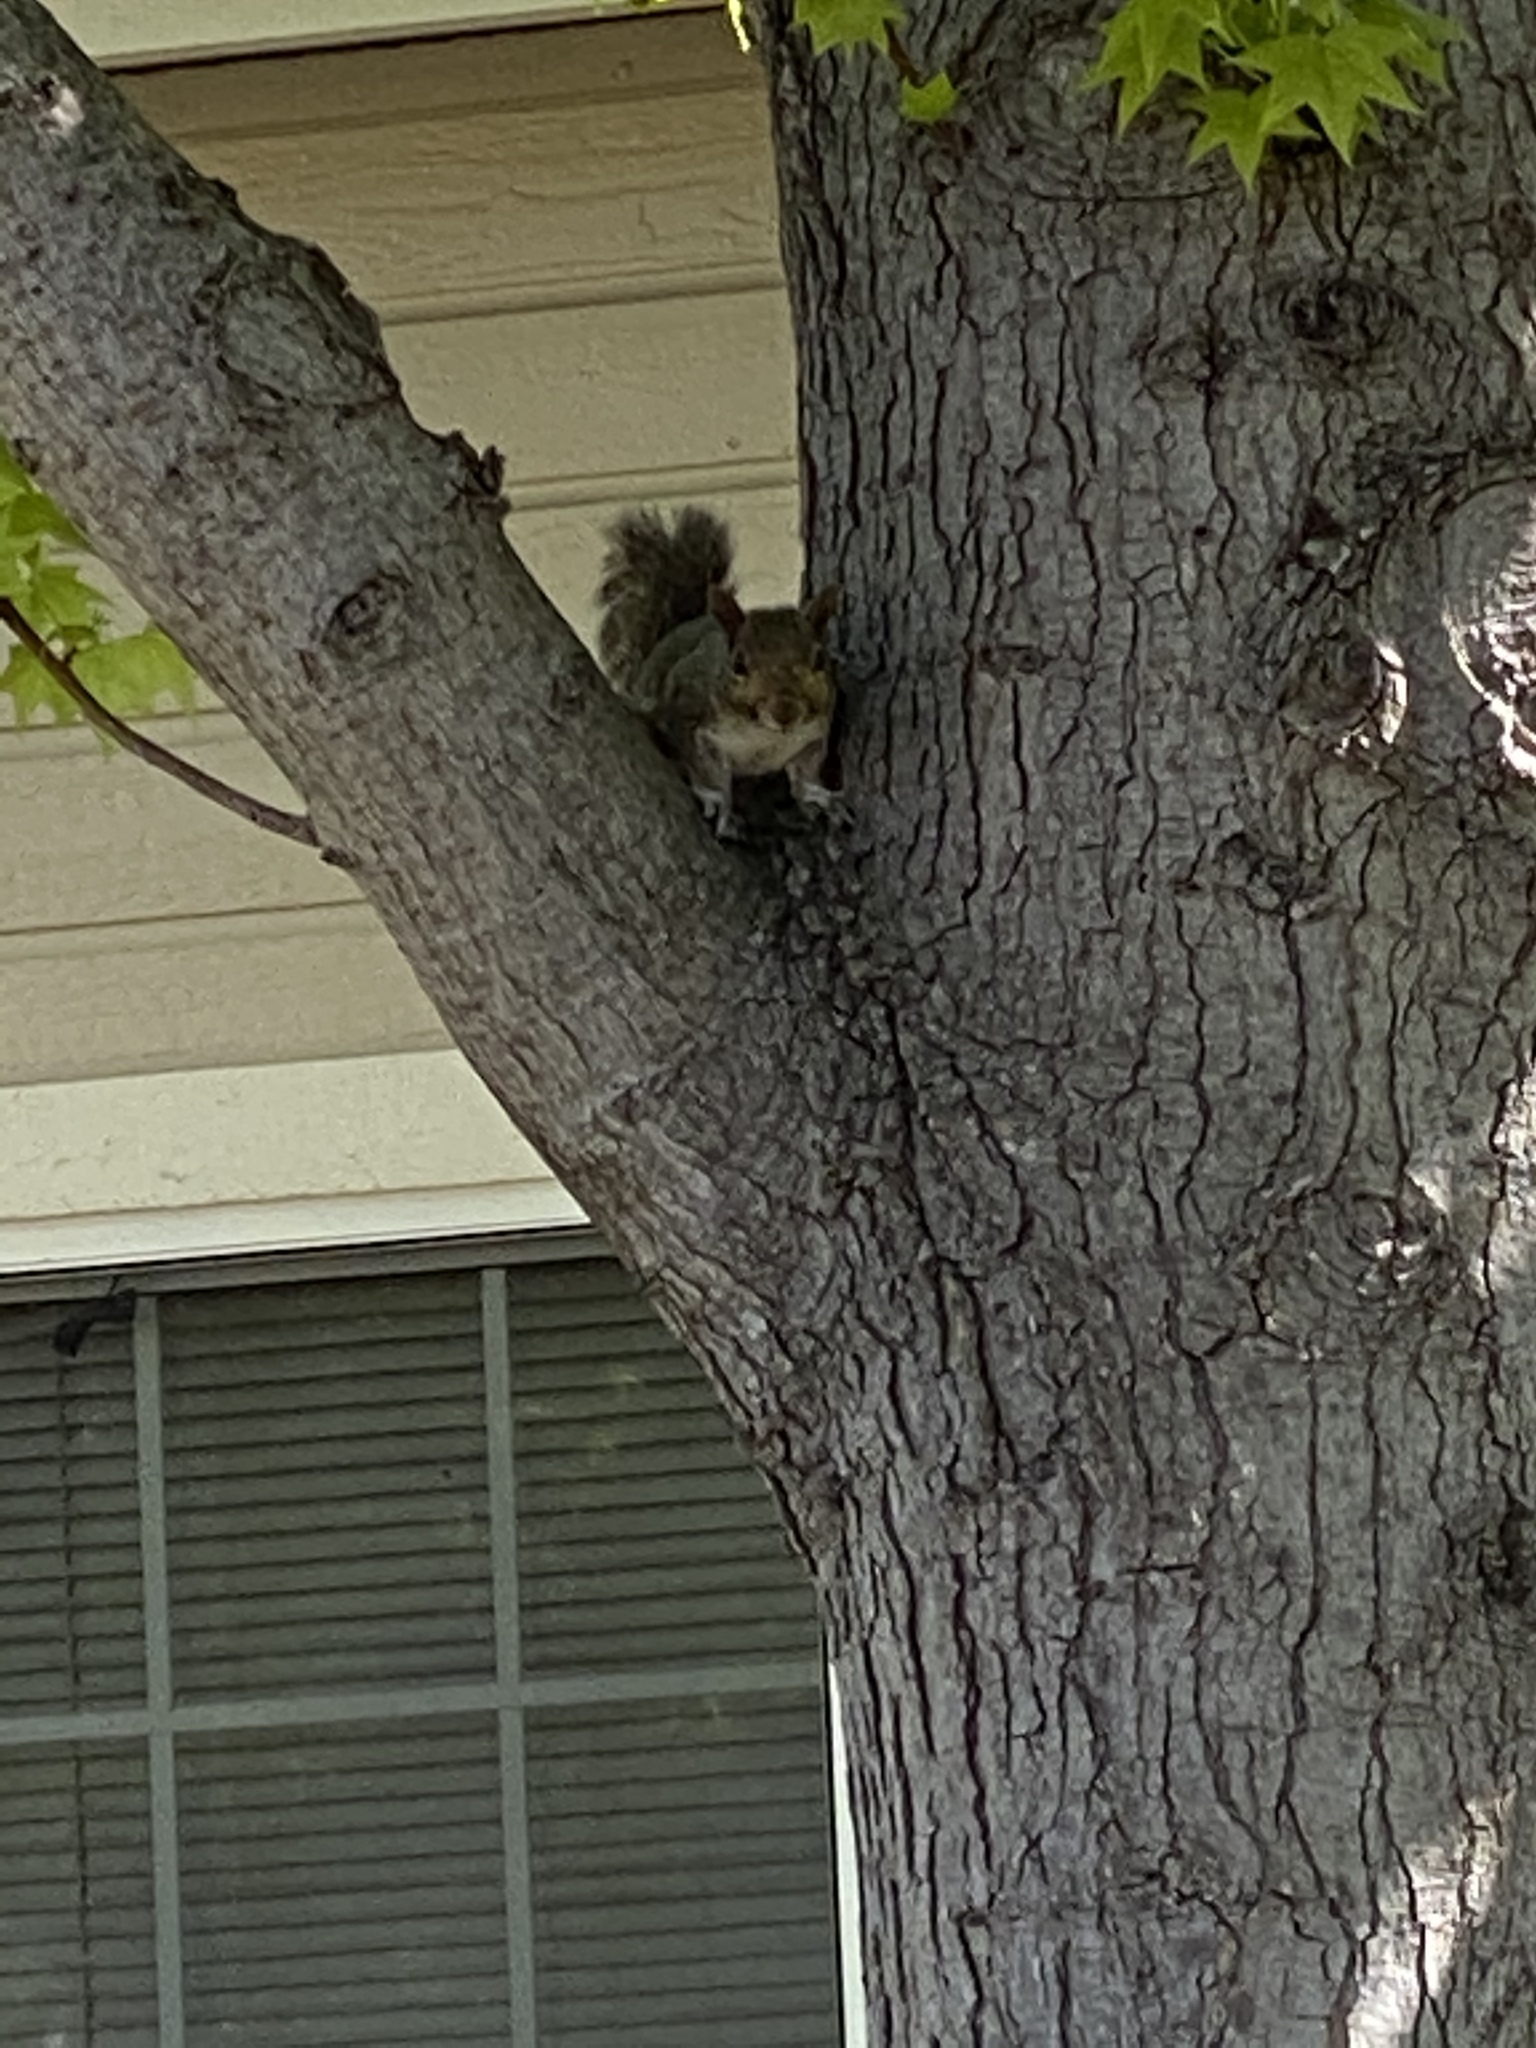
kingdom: Animalia
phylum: Chordata
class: Mammalia
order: Rodentia
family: Sciuridae
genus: Sciurus
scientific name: Sciurus carolinensis
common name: Eastern gray squirrel
